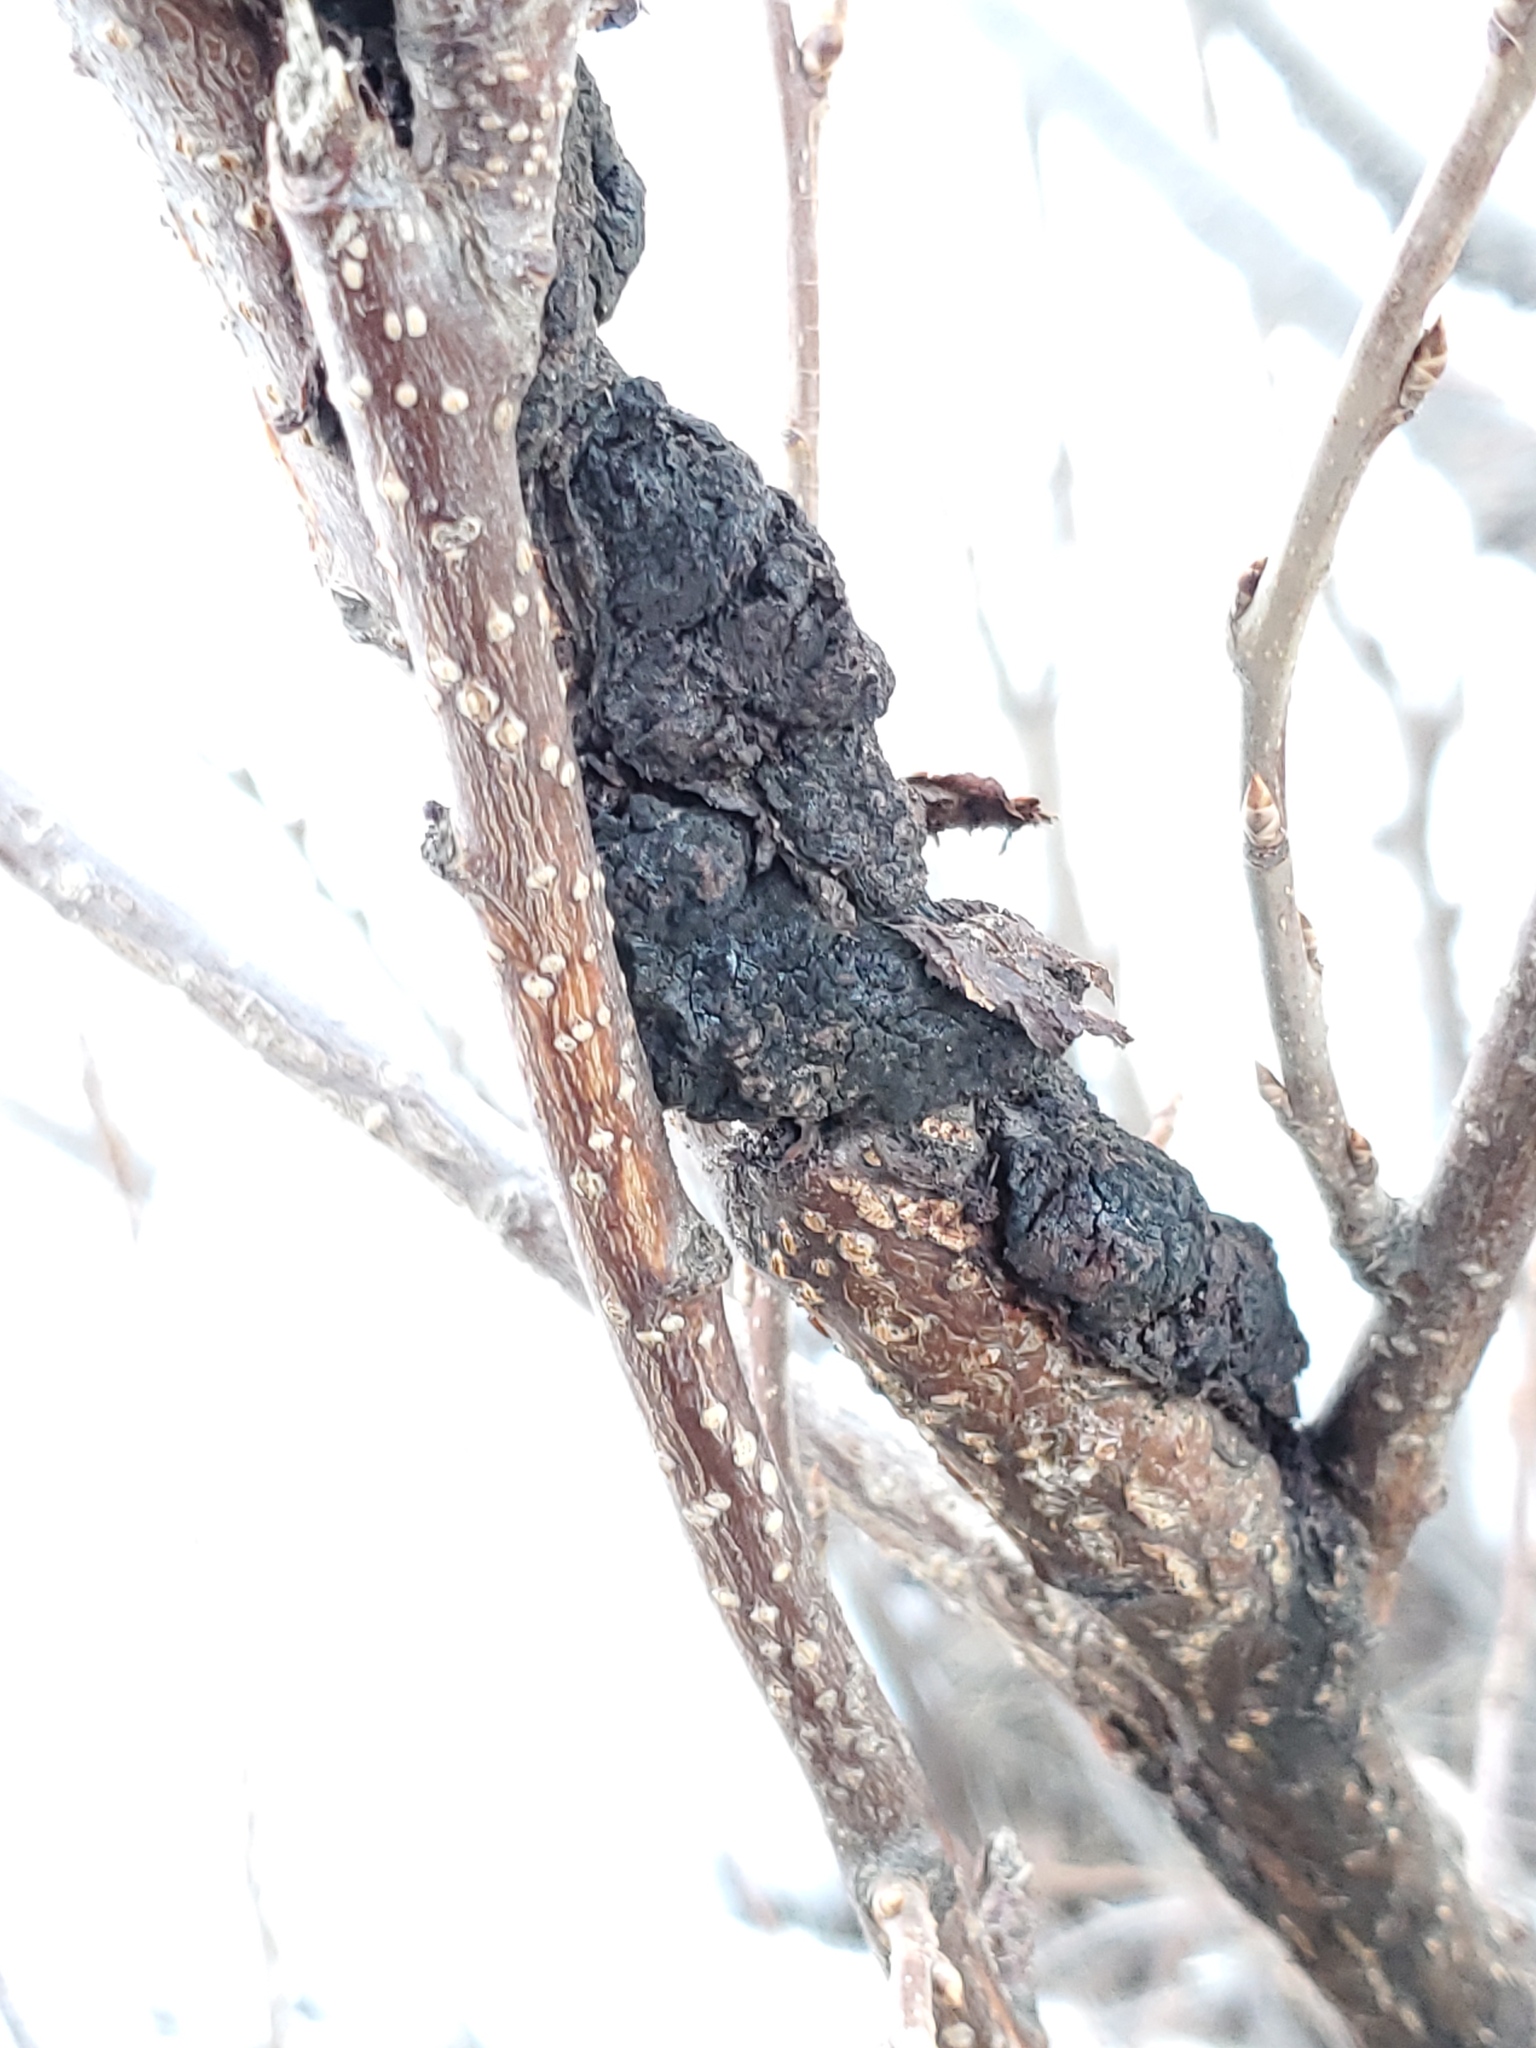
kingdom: Fungi
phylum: Ascomycota
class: Dothideomycetes
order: Venturiales
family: Venturiaceae
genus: Apiosporina
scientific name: Apiosporina morbosa
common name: Black knot
